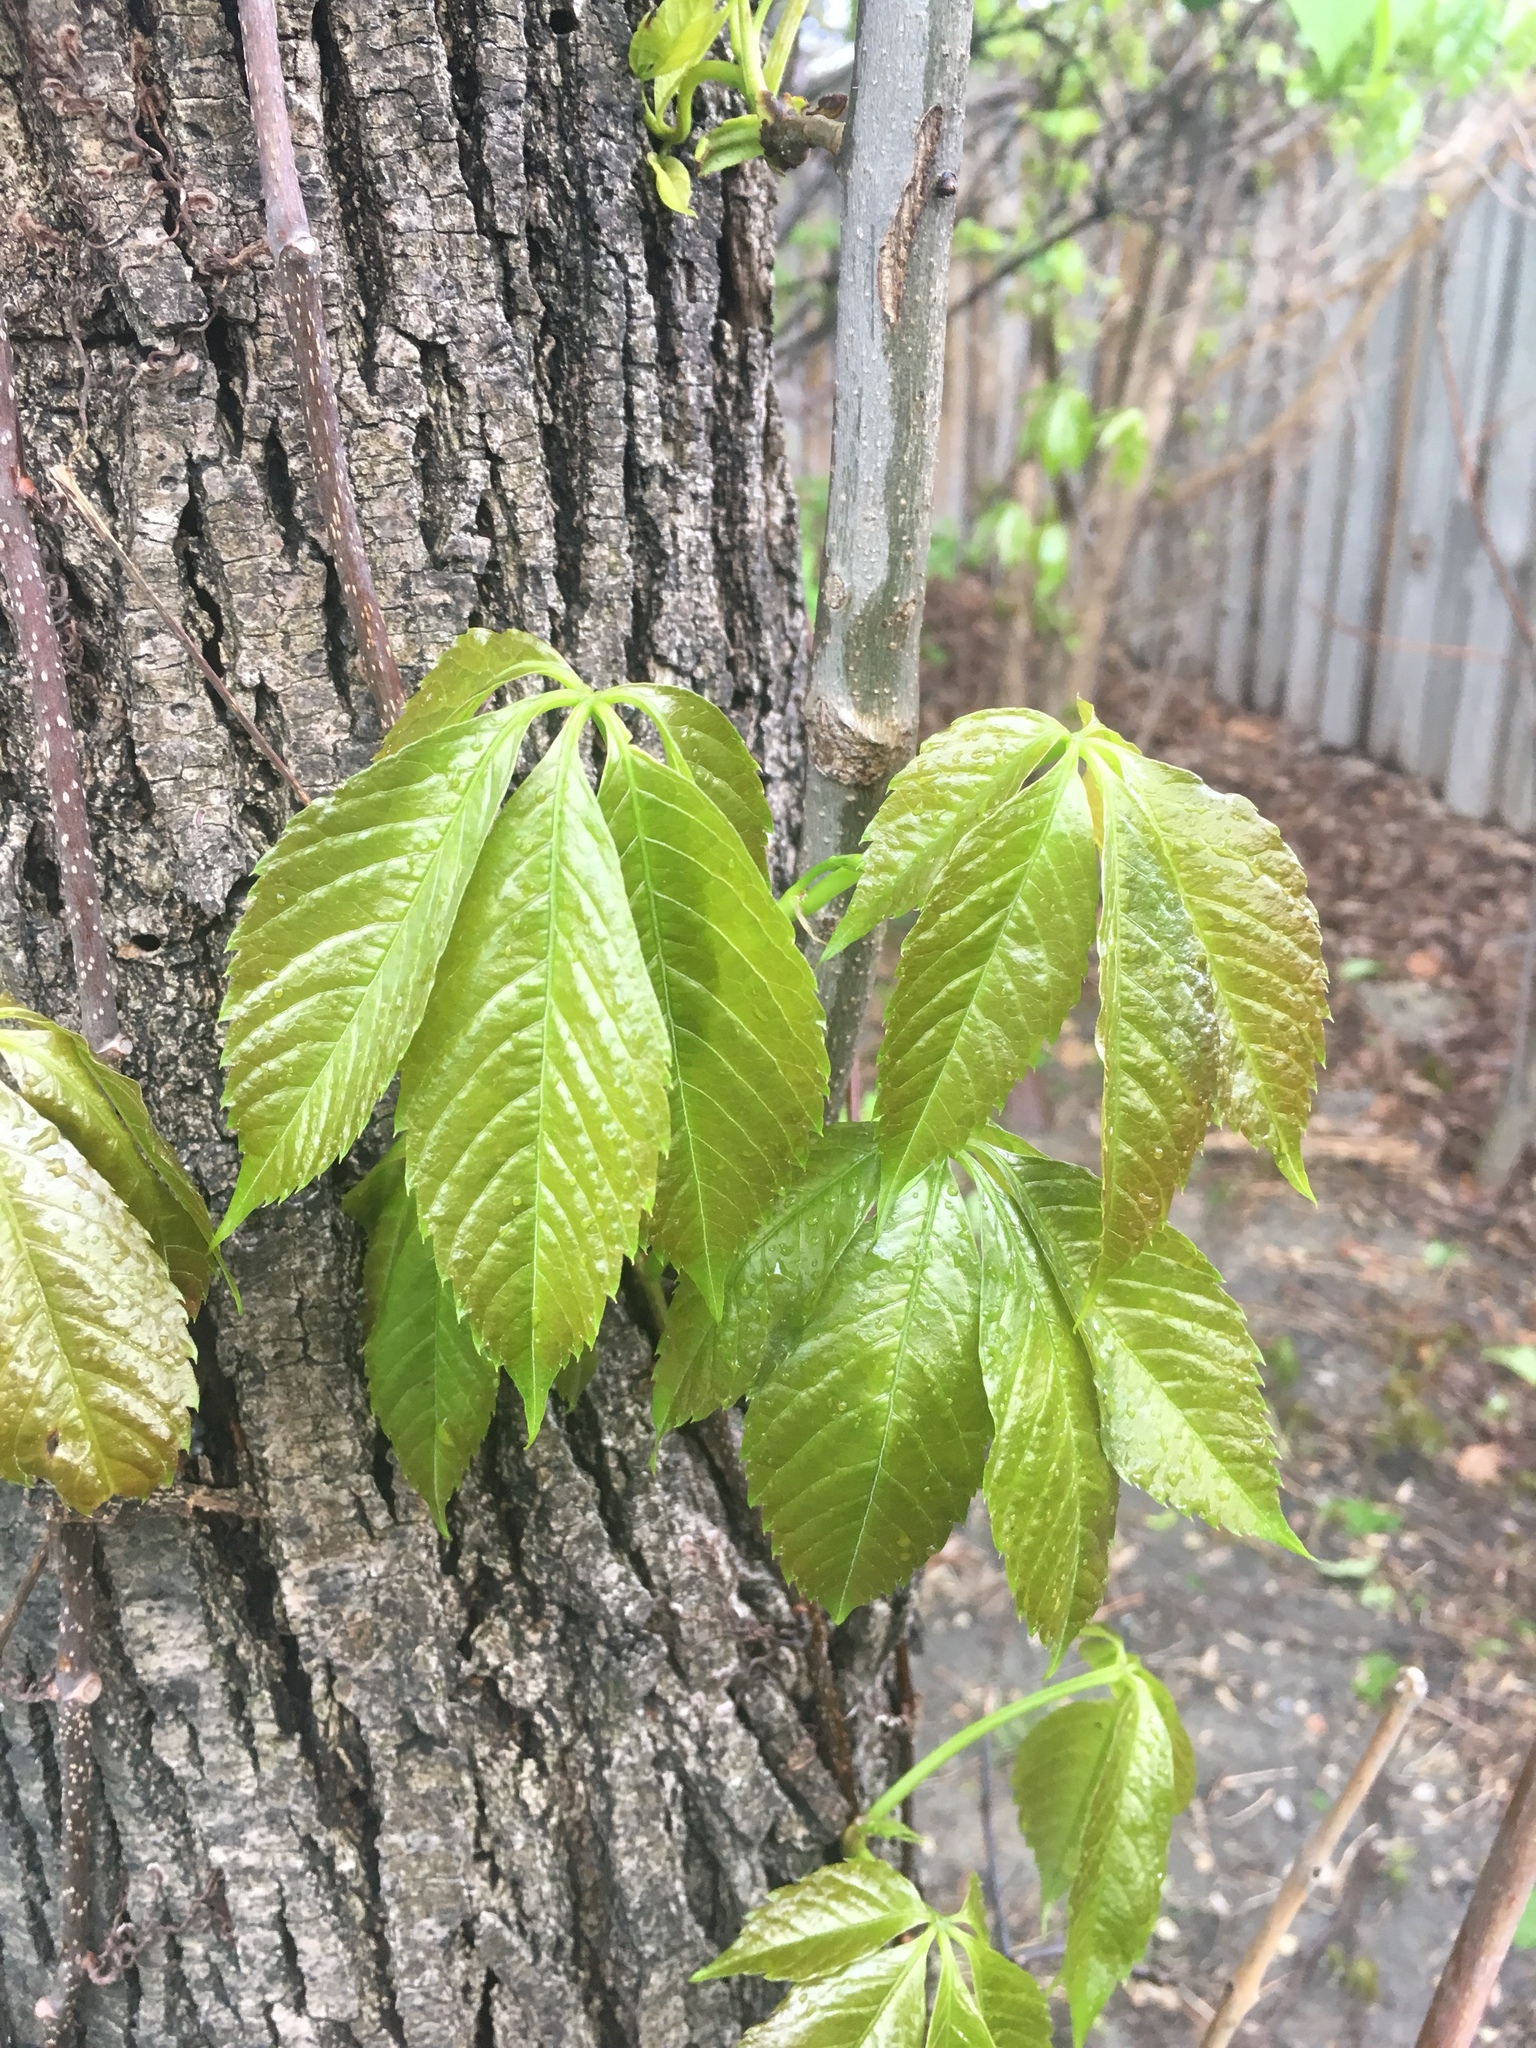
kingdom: Plantae
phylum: Tracheophyta
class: Magnoliopsida
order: Vitales
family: Vitaceae
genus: Parthenocissus
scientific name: Parthenocissus quinquefolia
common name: Virginia-creeper
